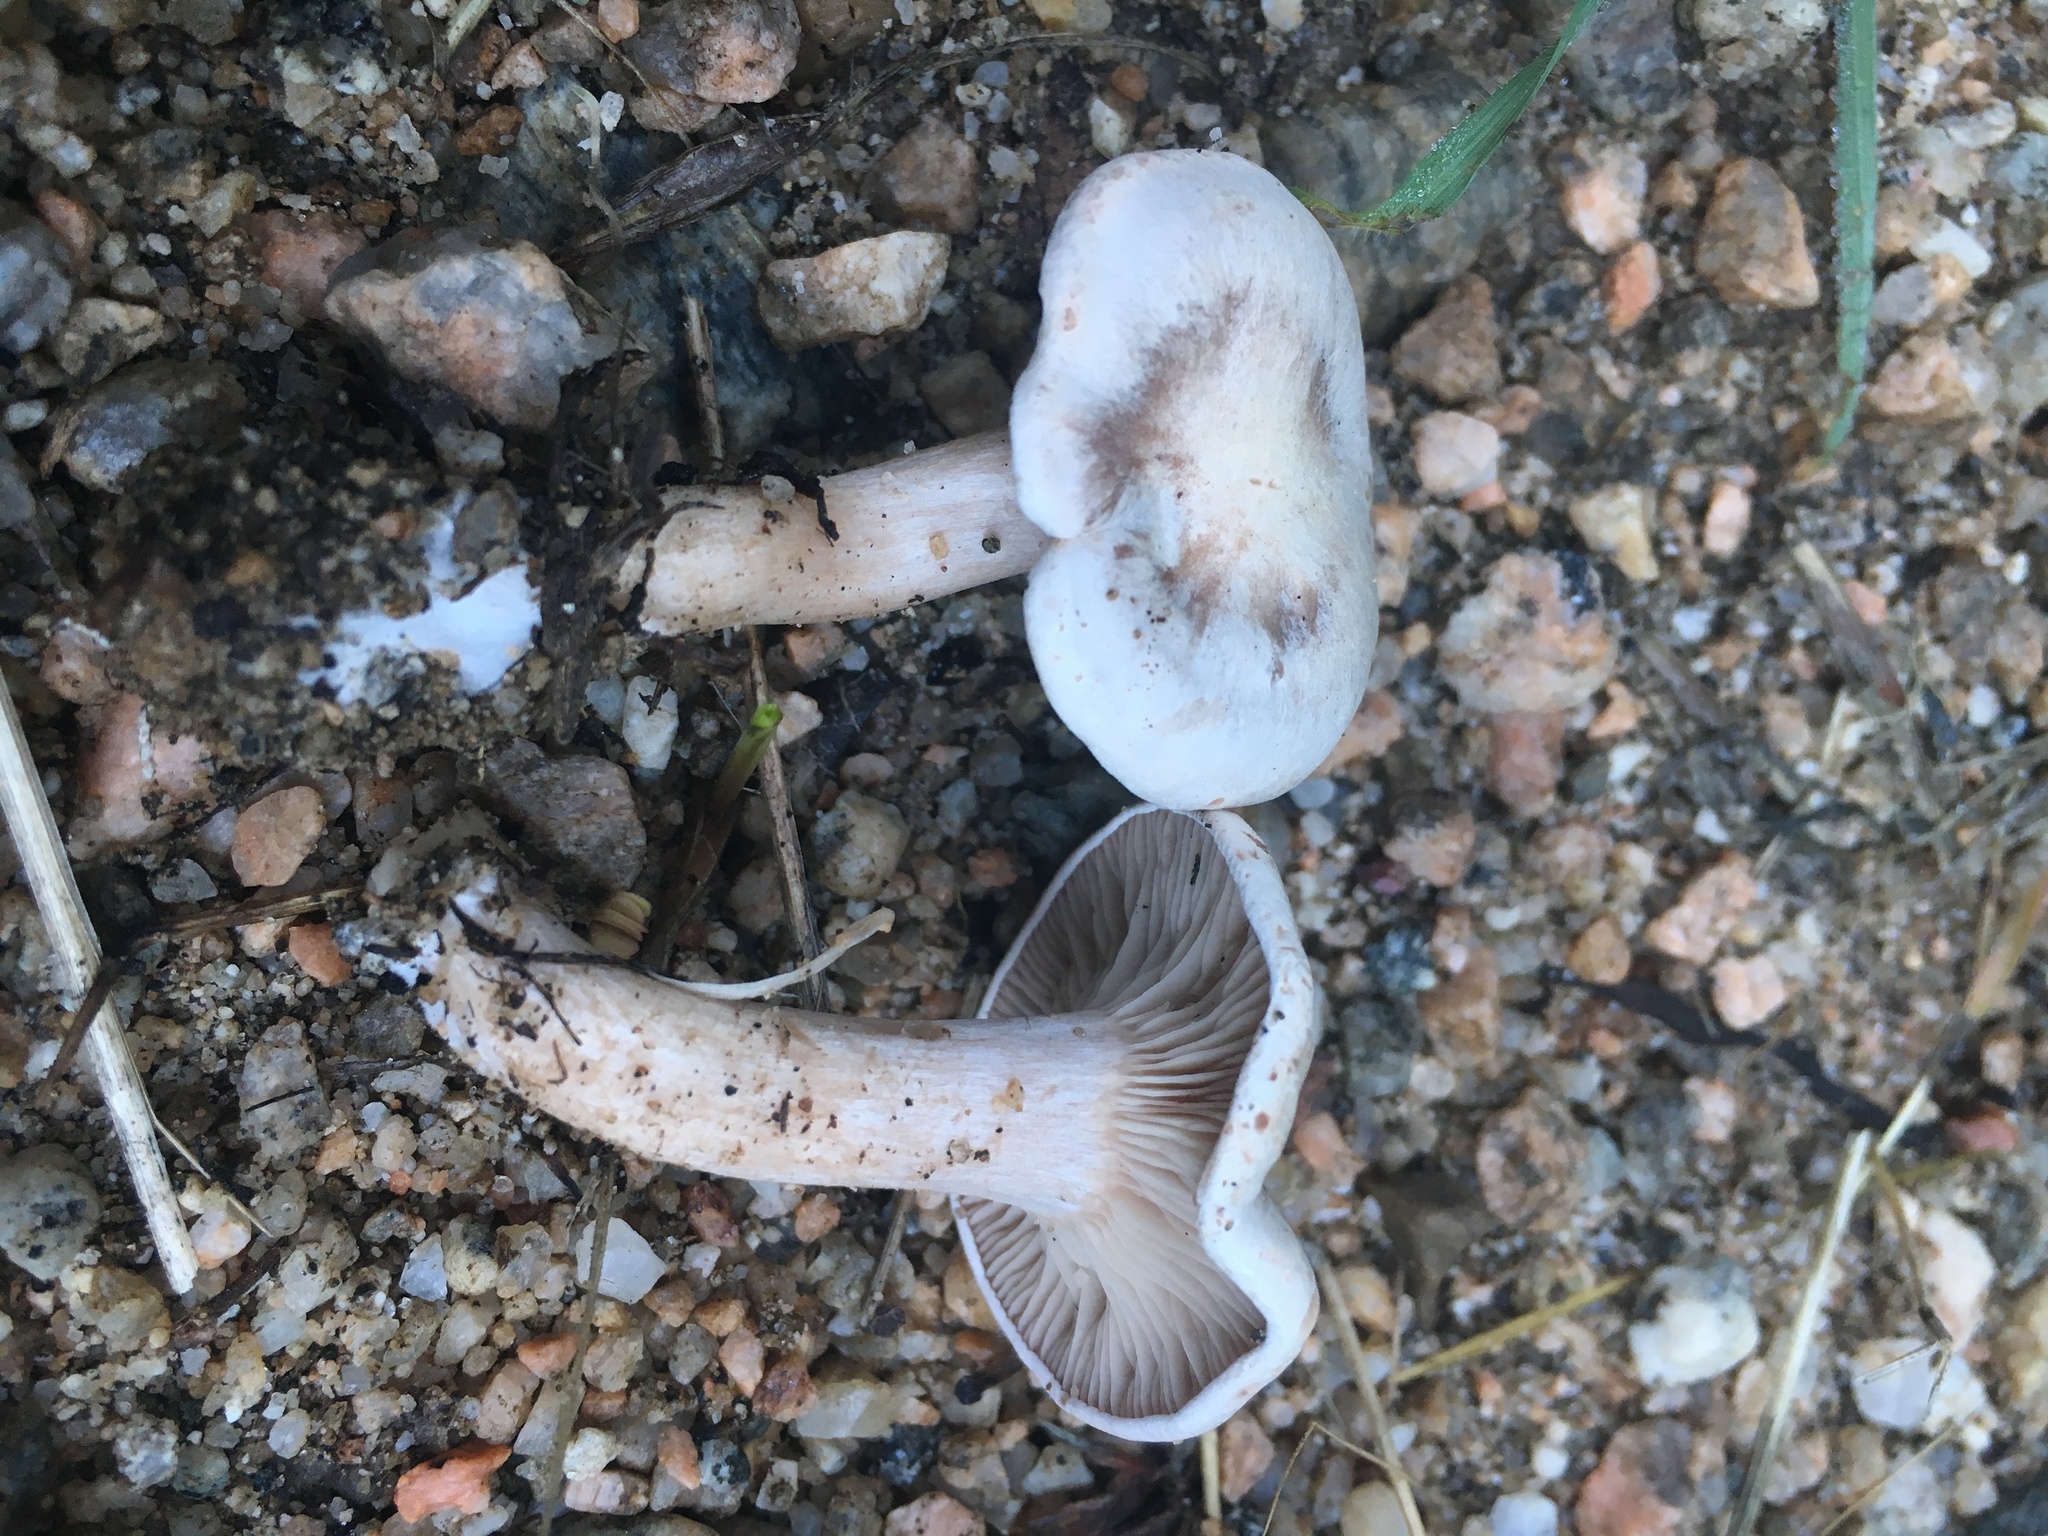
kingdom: Fungi
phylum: Basidiomycota
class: Agaricomycetes
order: Agaricales
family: Tricholomataceae
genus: Collybia
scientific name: Collybia
